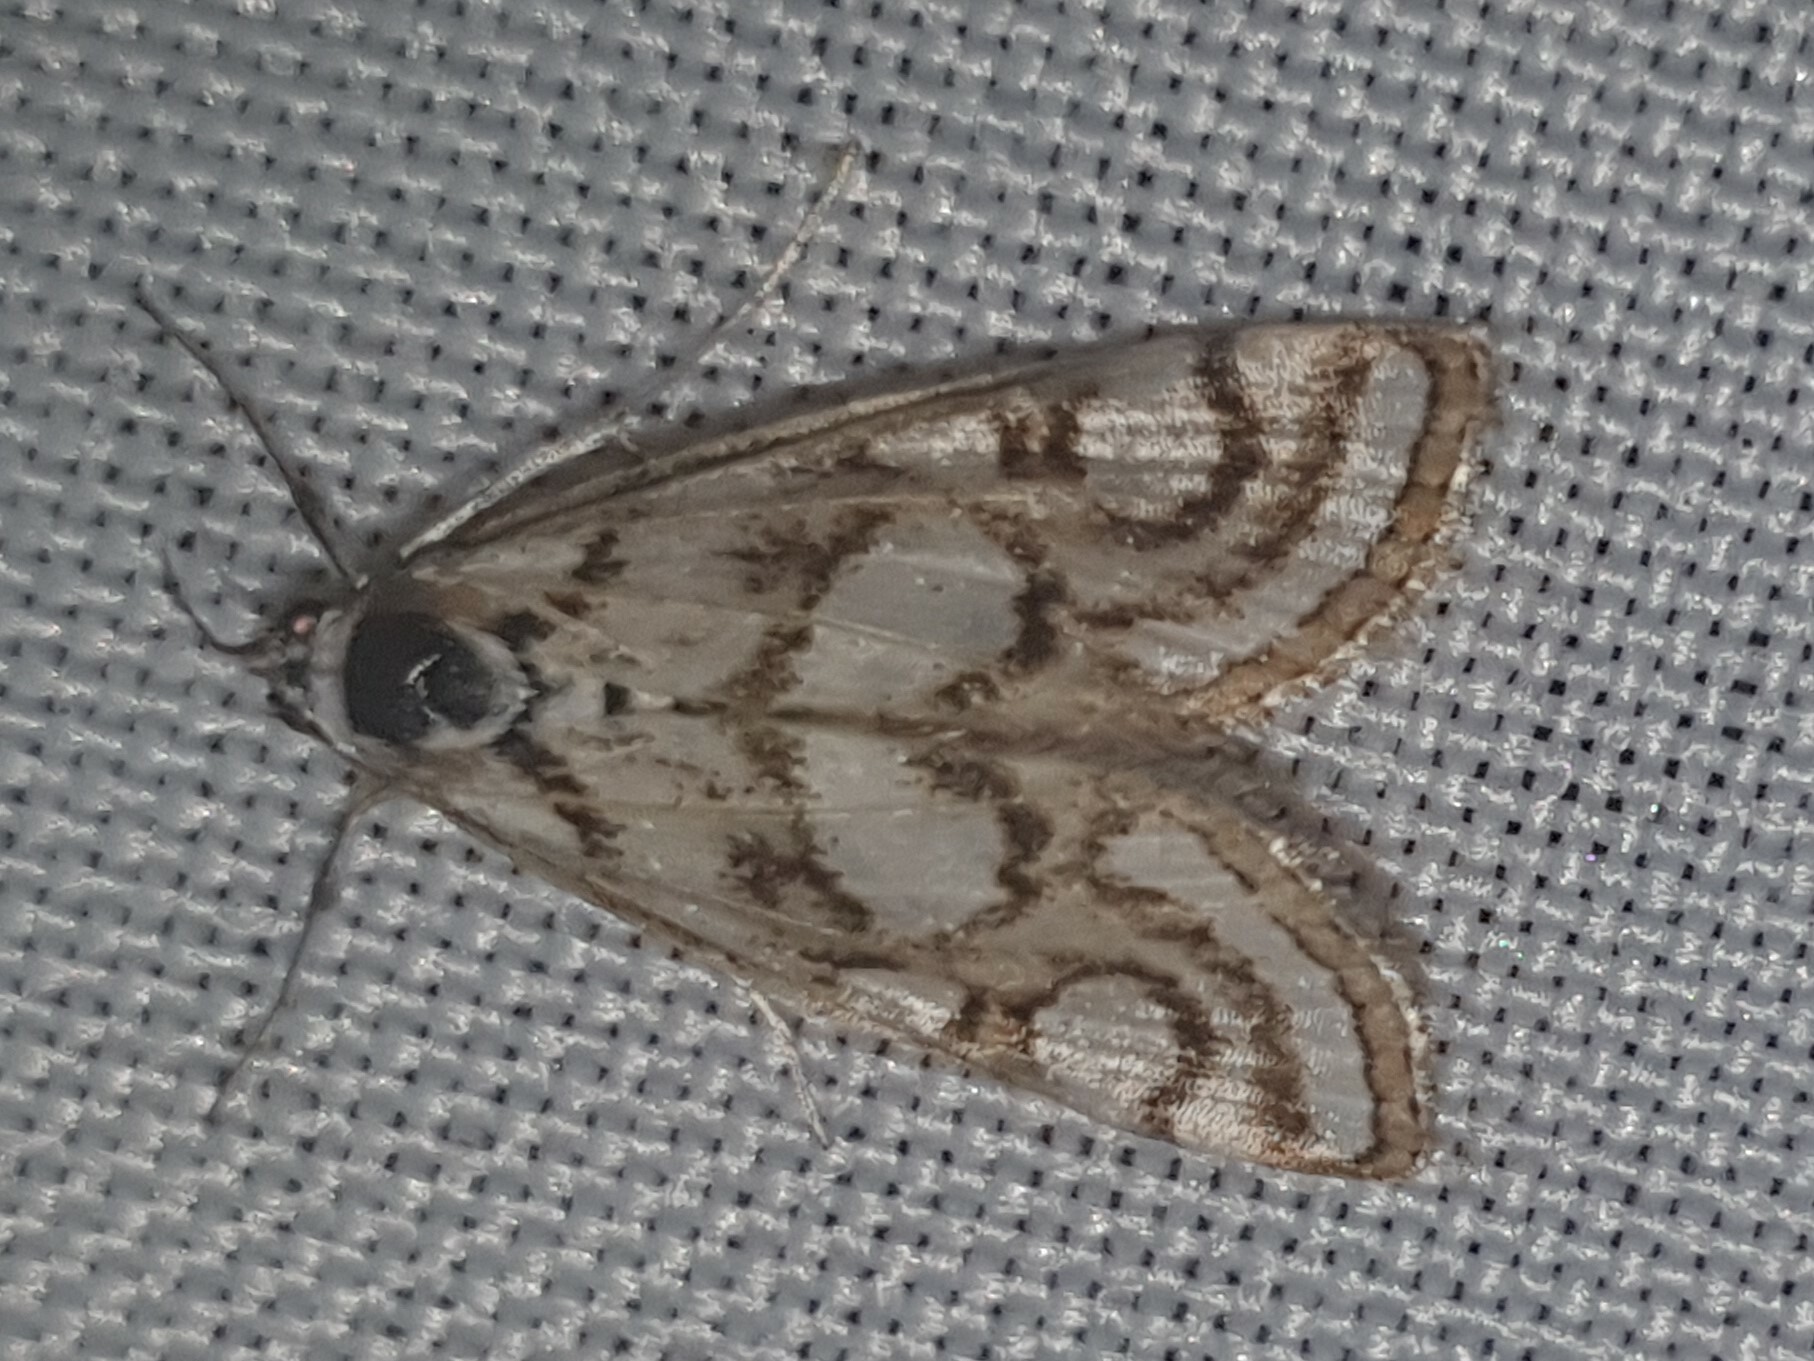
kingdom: Animalia
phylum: Arthropoda
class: Insecta
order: Lepidoptera
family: Crambidae
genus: Nymphula
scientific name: Nymphula nitidulata
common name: Beautiful china mark
